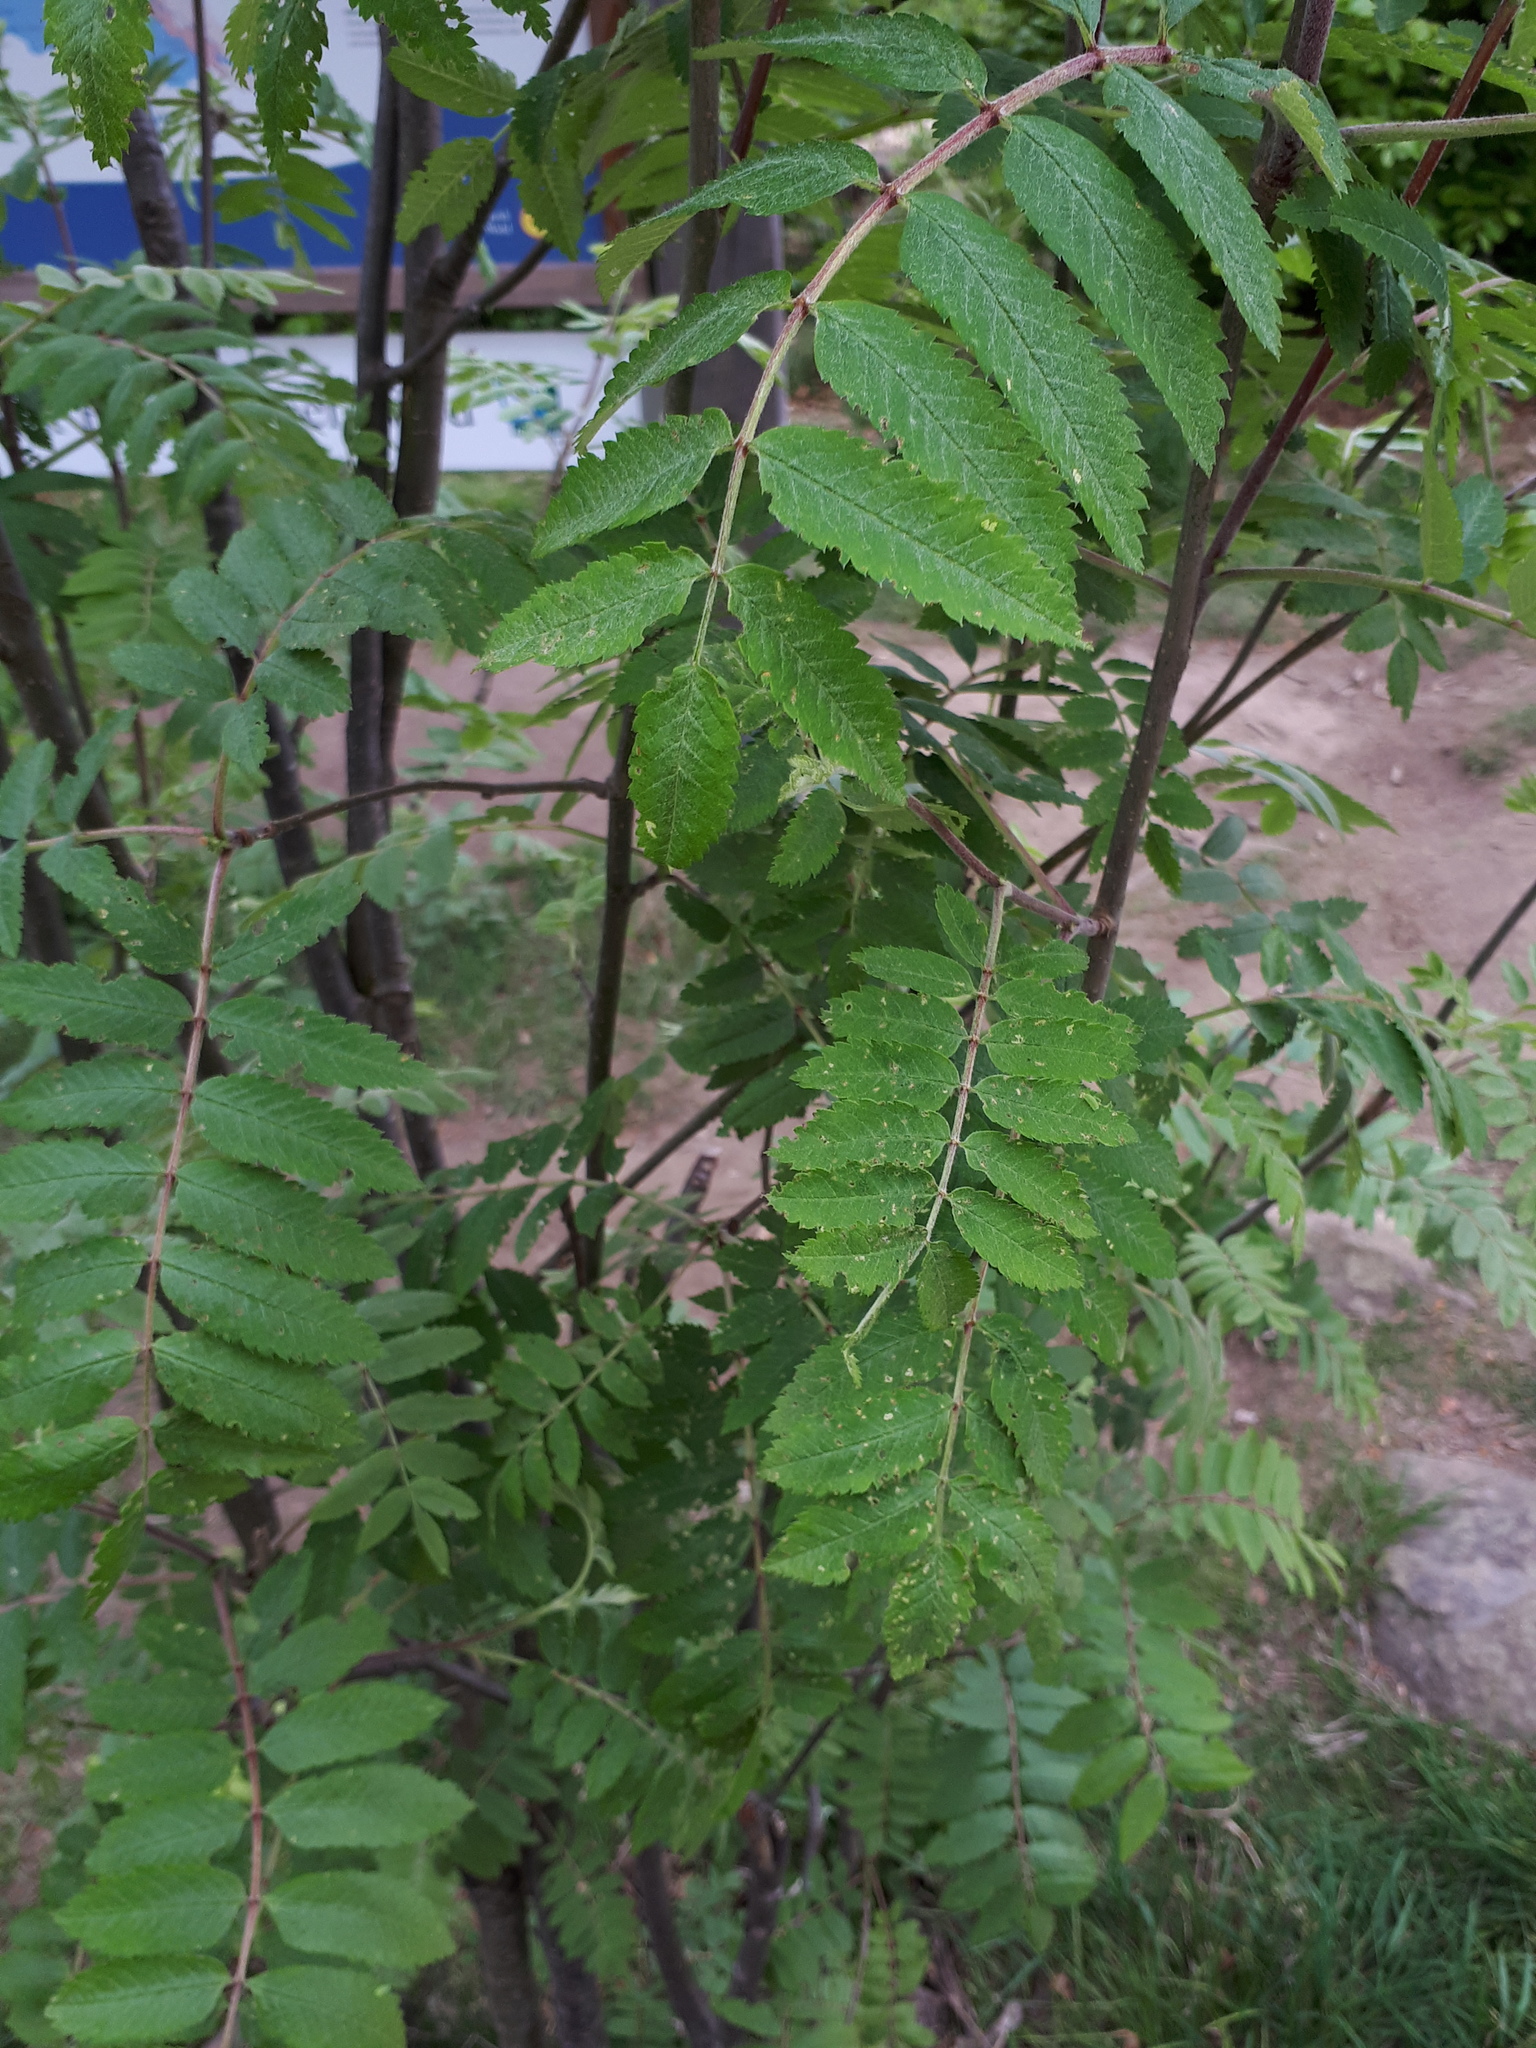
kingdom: Plantae
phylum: Tracheophyta
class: Magnoliopsida
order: Rosales
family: Rosaceae
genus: Sorbus
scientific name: Sorbus aucuparia
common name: Rowan
